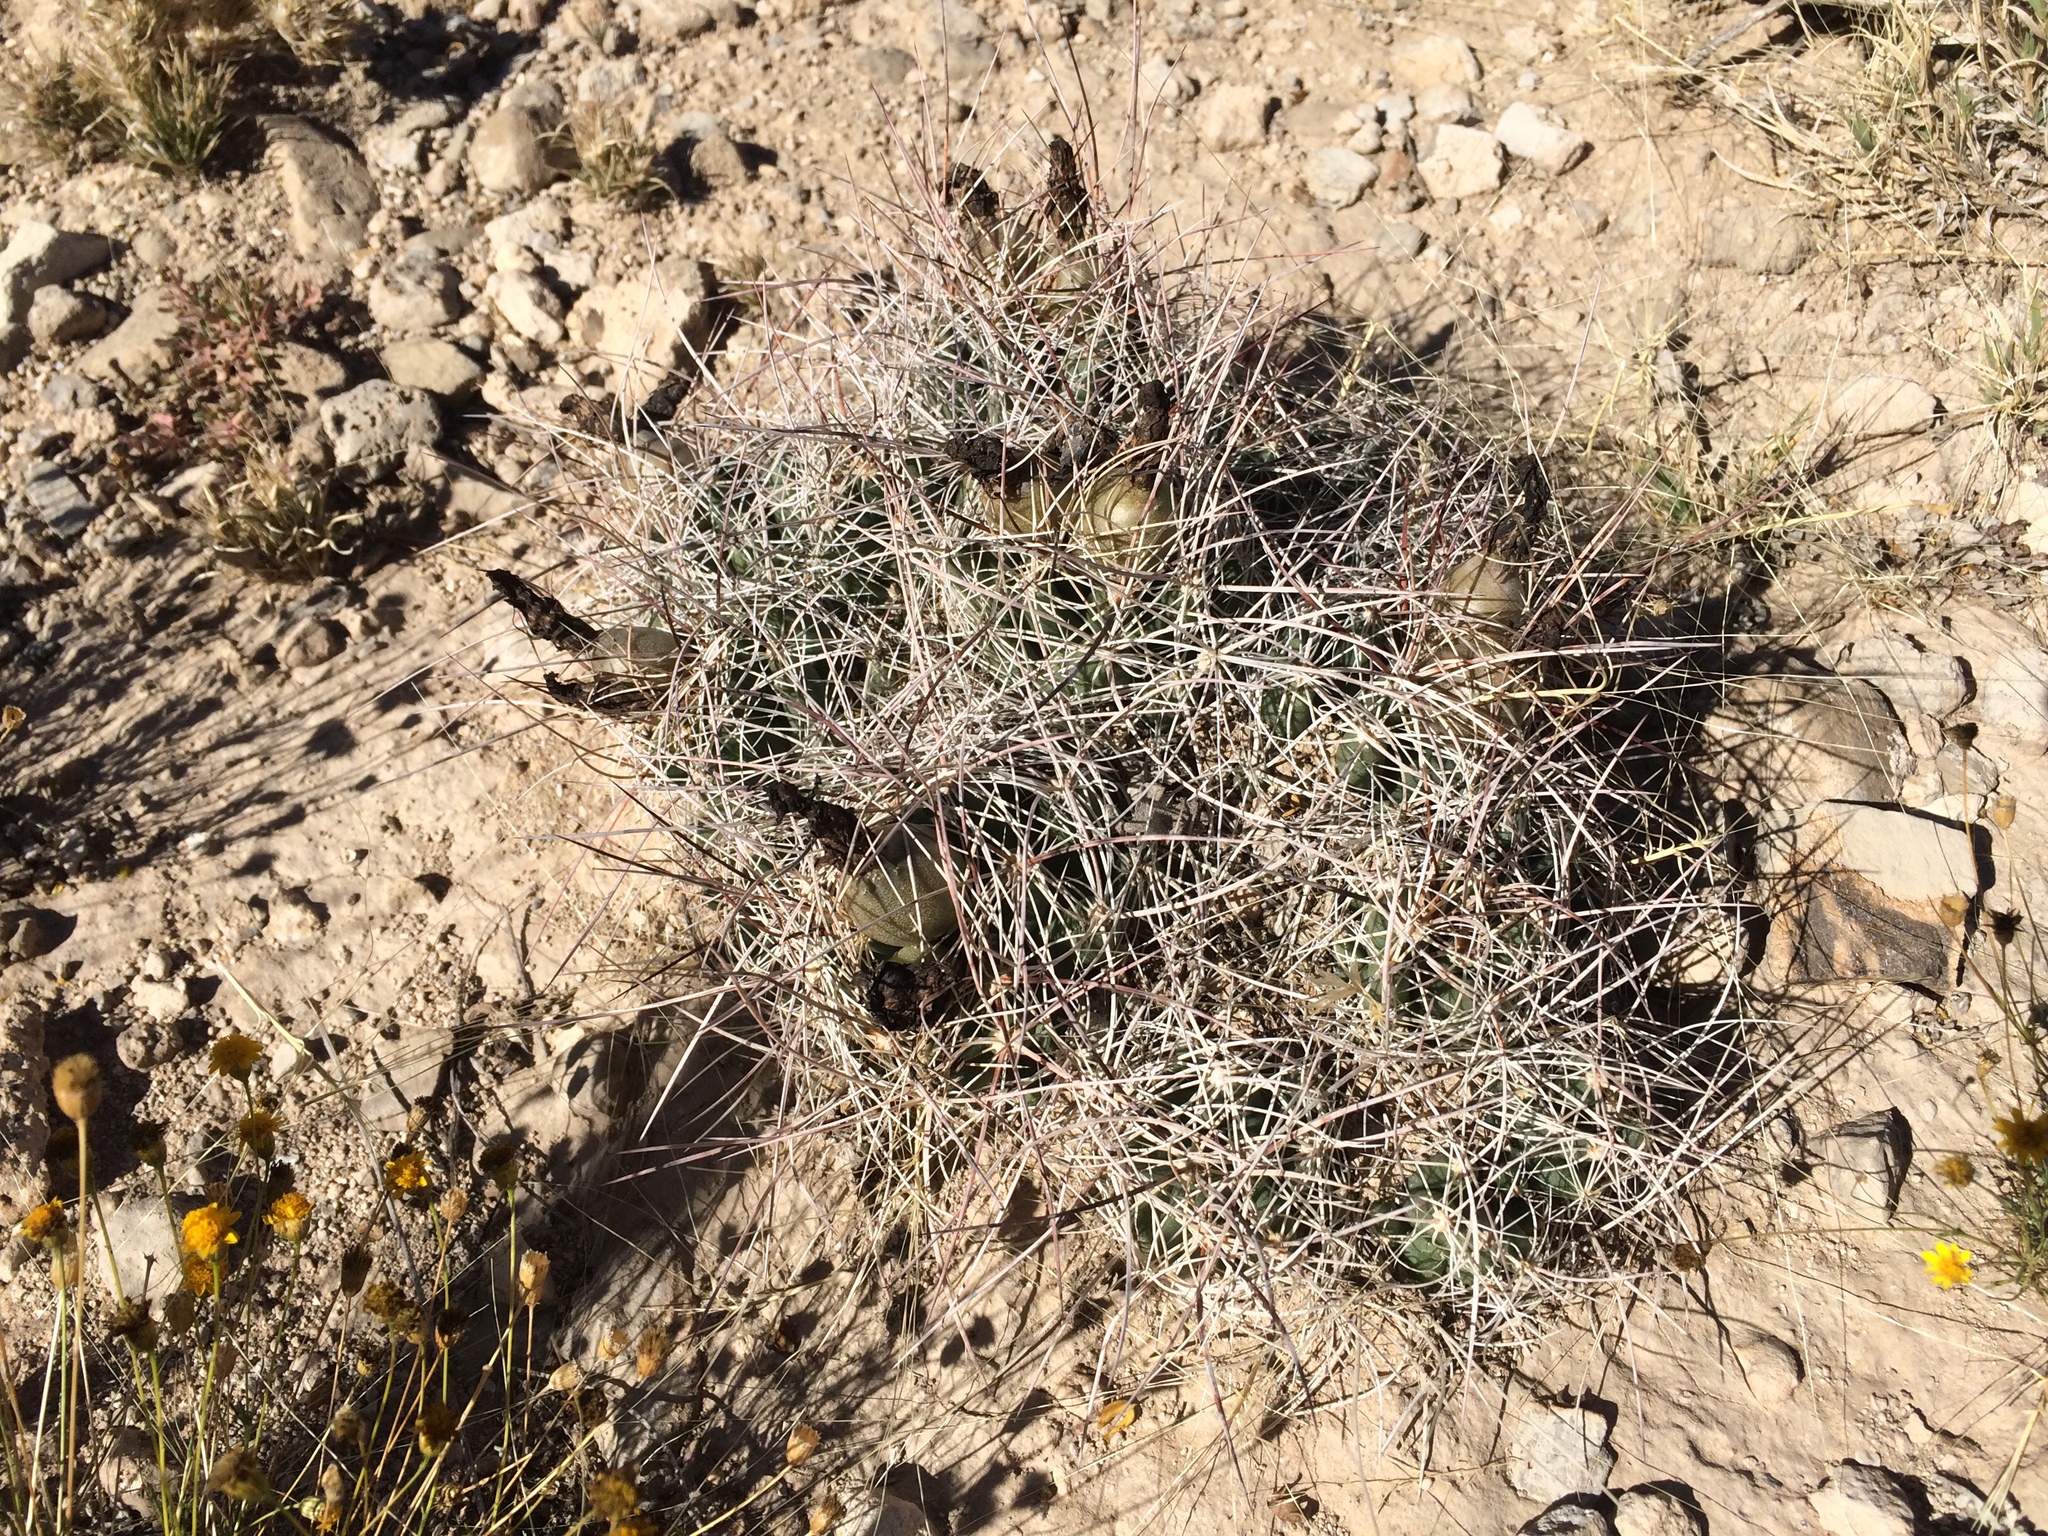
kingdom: Plantae
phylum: Tracheophyta
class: Magnoliopsida
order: Caryophyllales
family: Cactaceae
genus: Coryphantha
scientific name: Coryphantha macromeris
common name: Nipple beehive cactus
